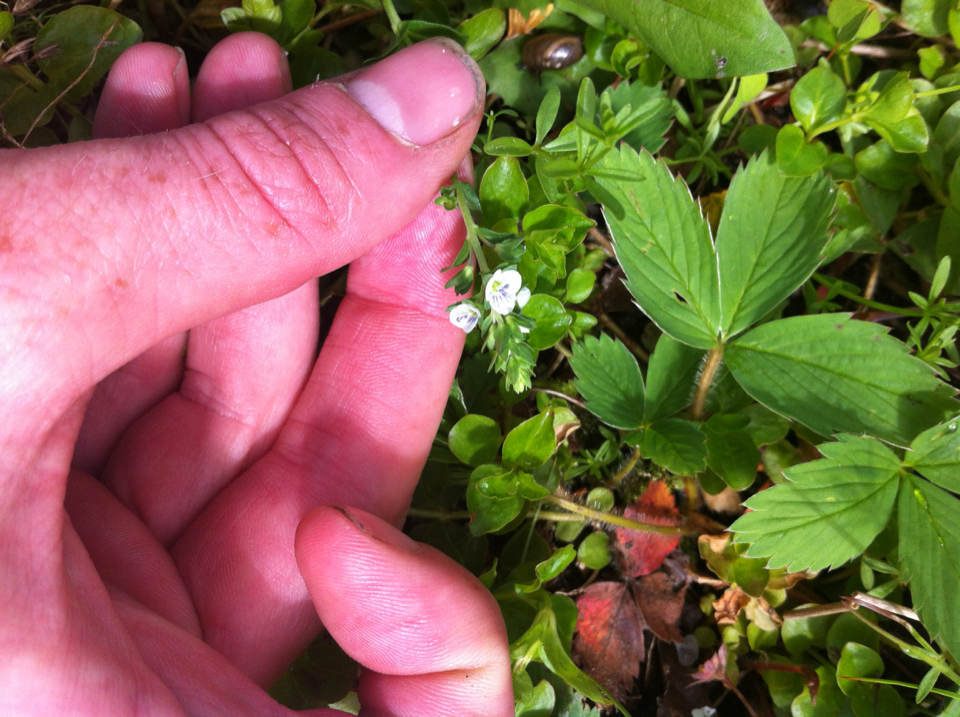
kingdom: Plantae
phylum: Tracheophyta
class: Magnoliopsida
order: Lamiales
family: Plantaginaceae
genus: Veronica
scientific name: Veronica serpyllifolia
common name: Thyme-leaved speedwell
